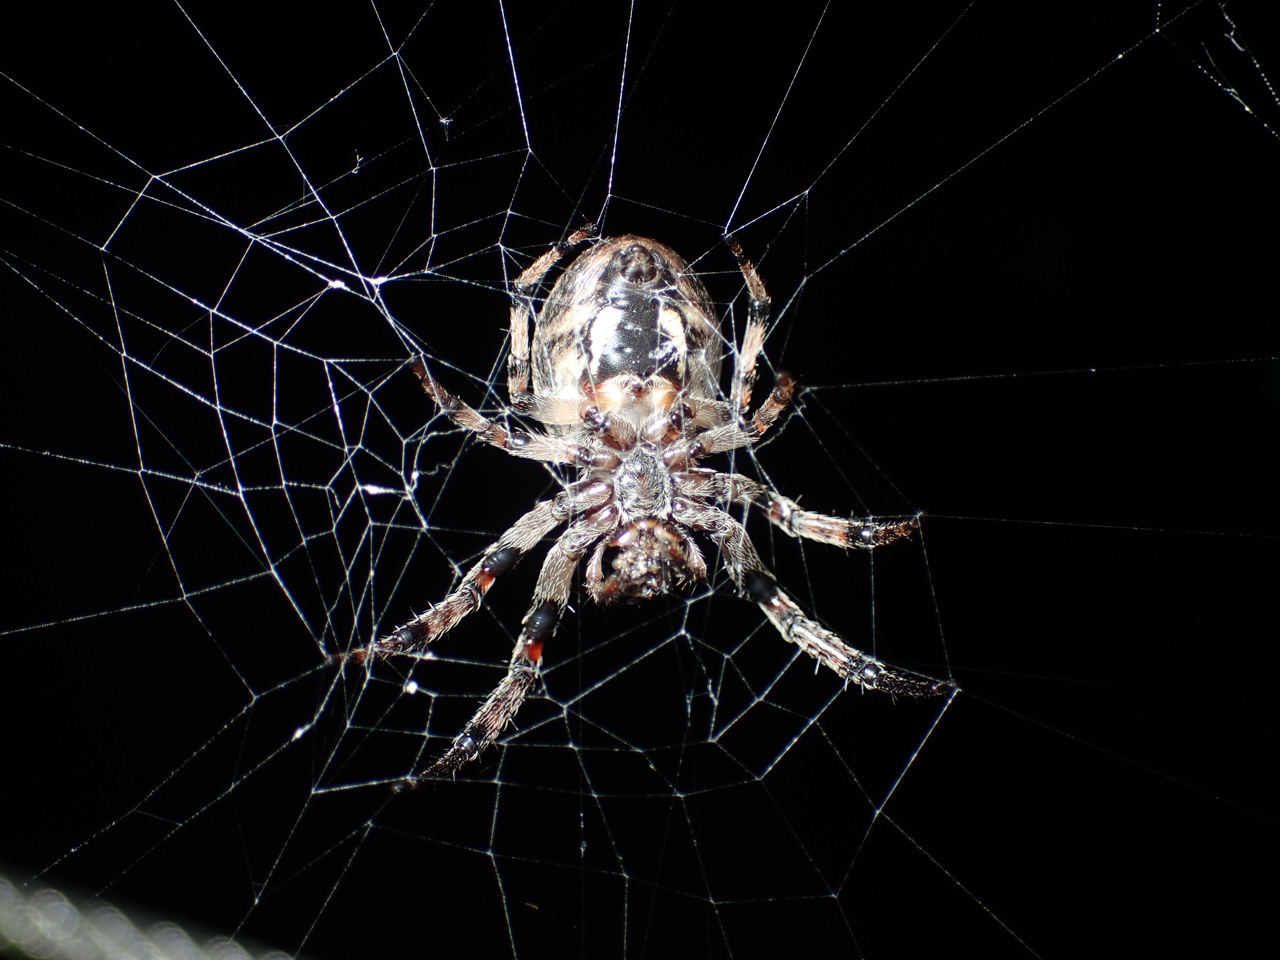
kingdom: Animalia
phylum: Arthropoda
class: Arachnida
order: Araneae
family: Araneidae
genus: Larinioides
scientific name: Larinioides cornutus
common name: Furrow orbweaver
